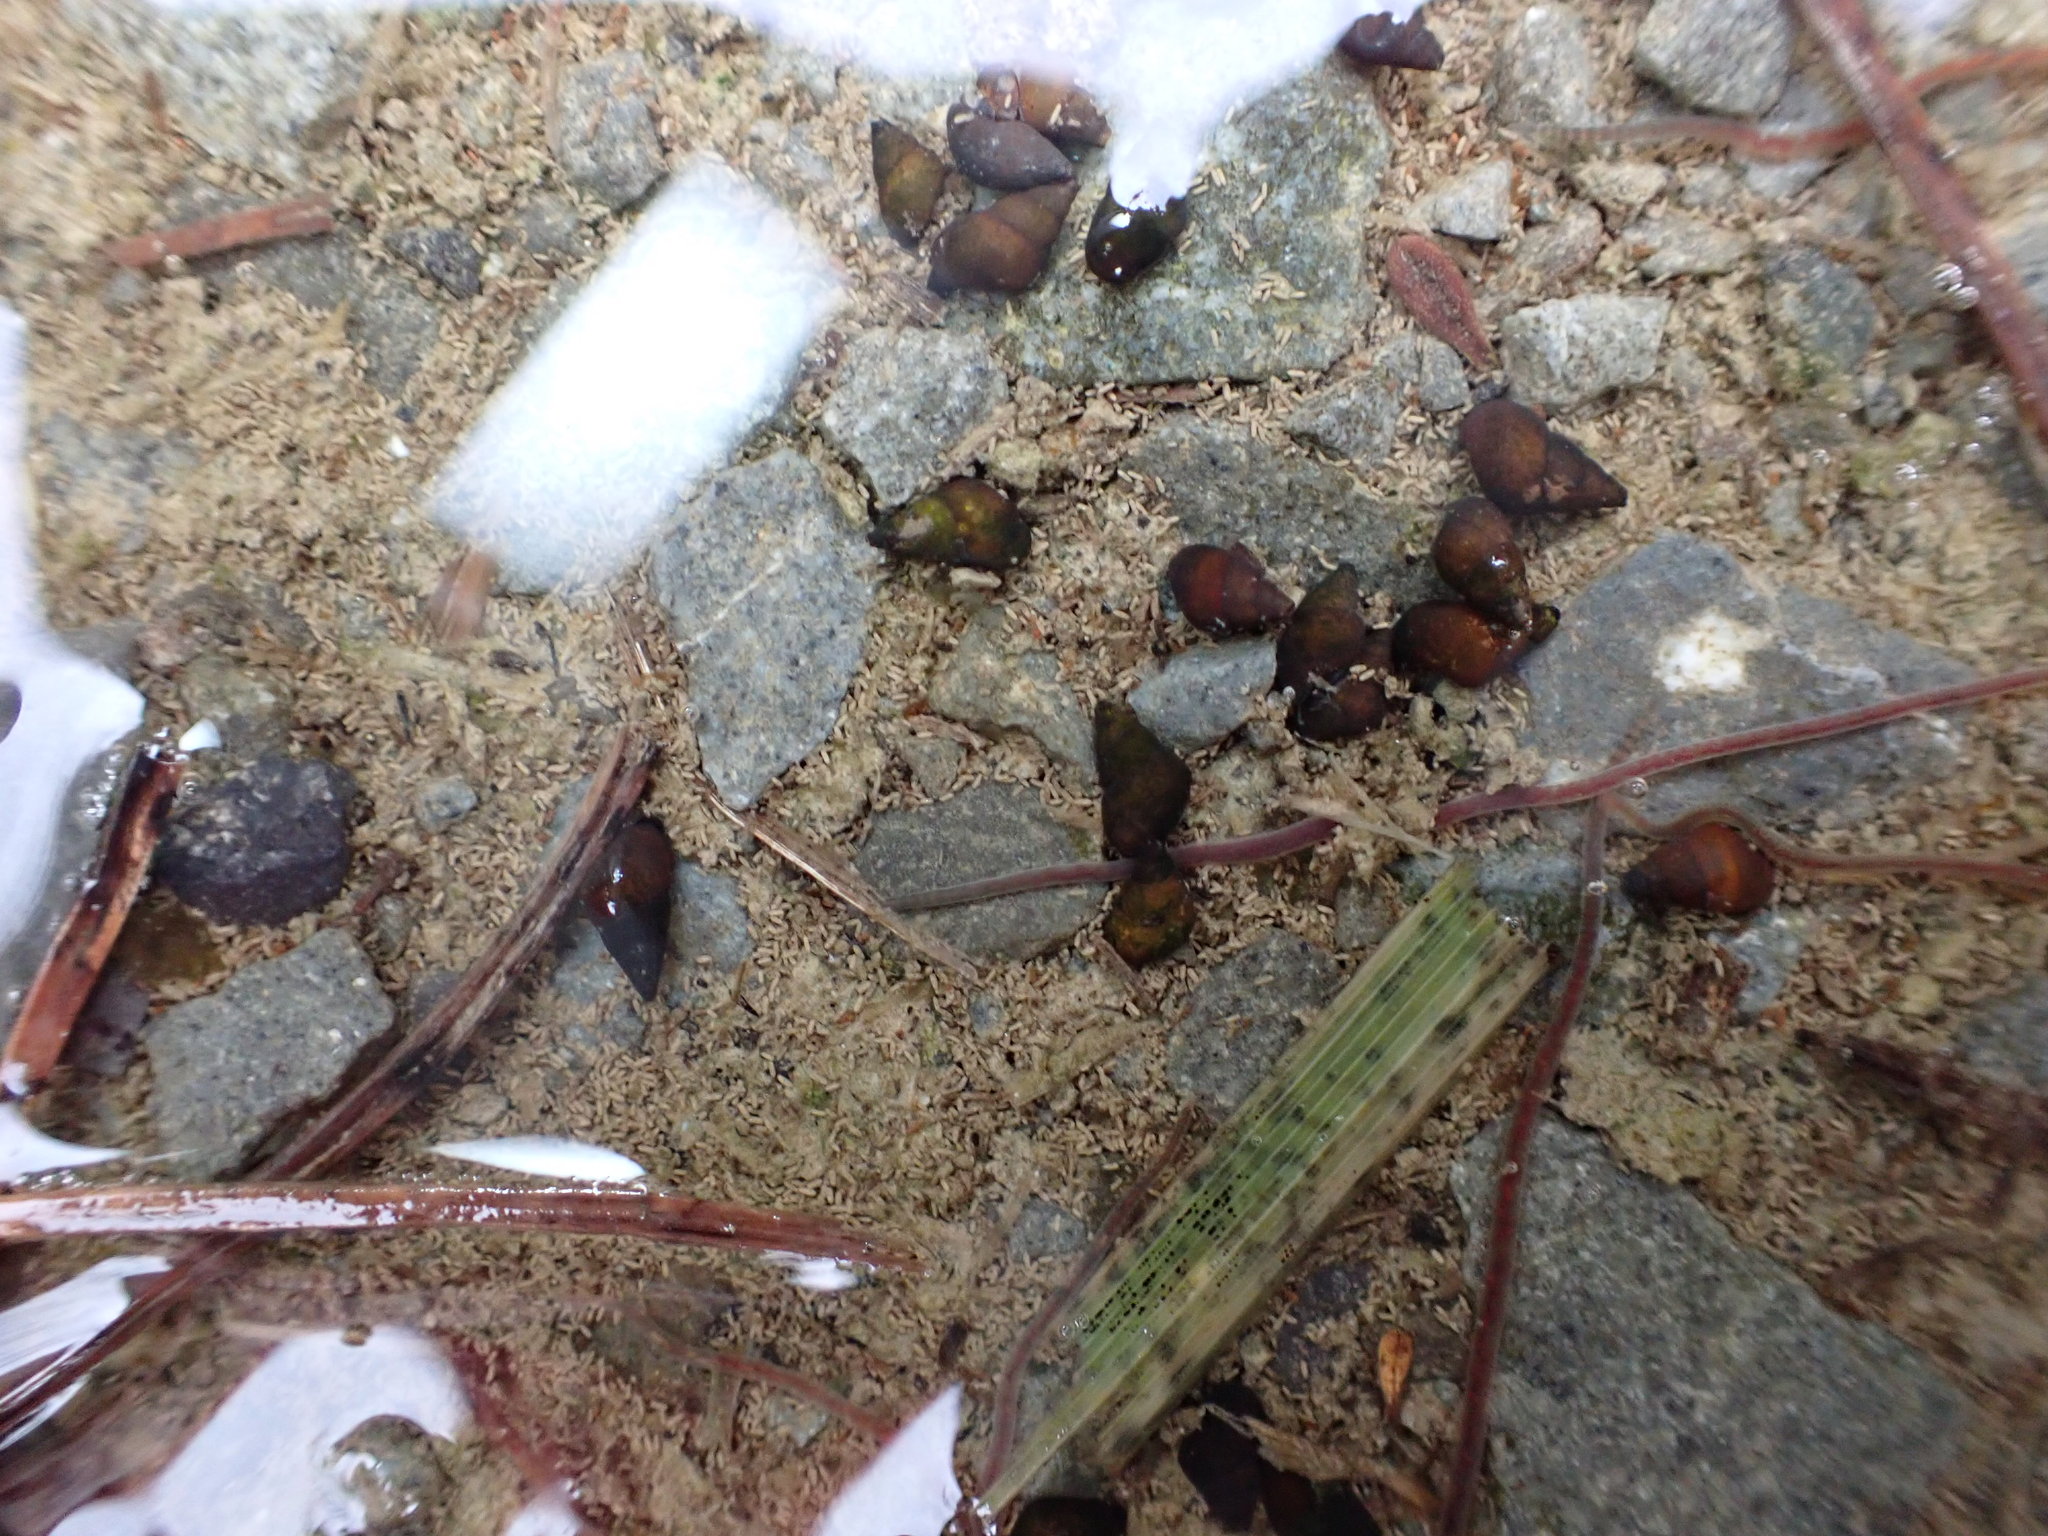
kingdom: Animalia
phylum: Mollusca
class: Gastropoda
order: Littorinimorpha
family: Tateidae
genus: Potamopyrgus
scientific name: Potamopyrgus estuarinus
